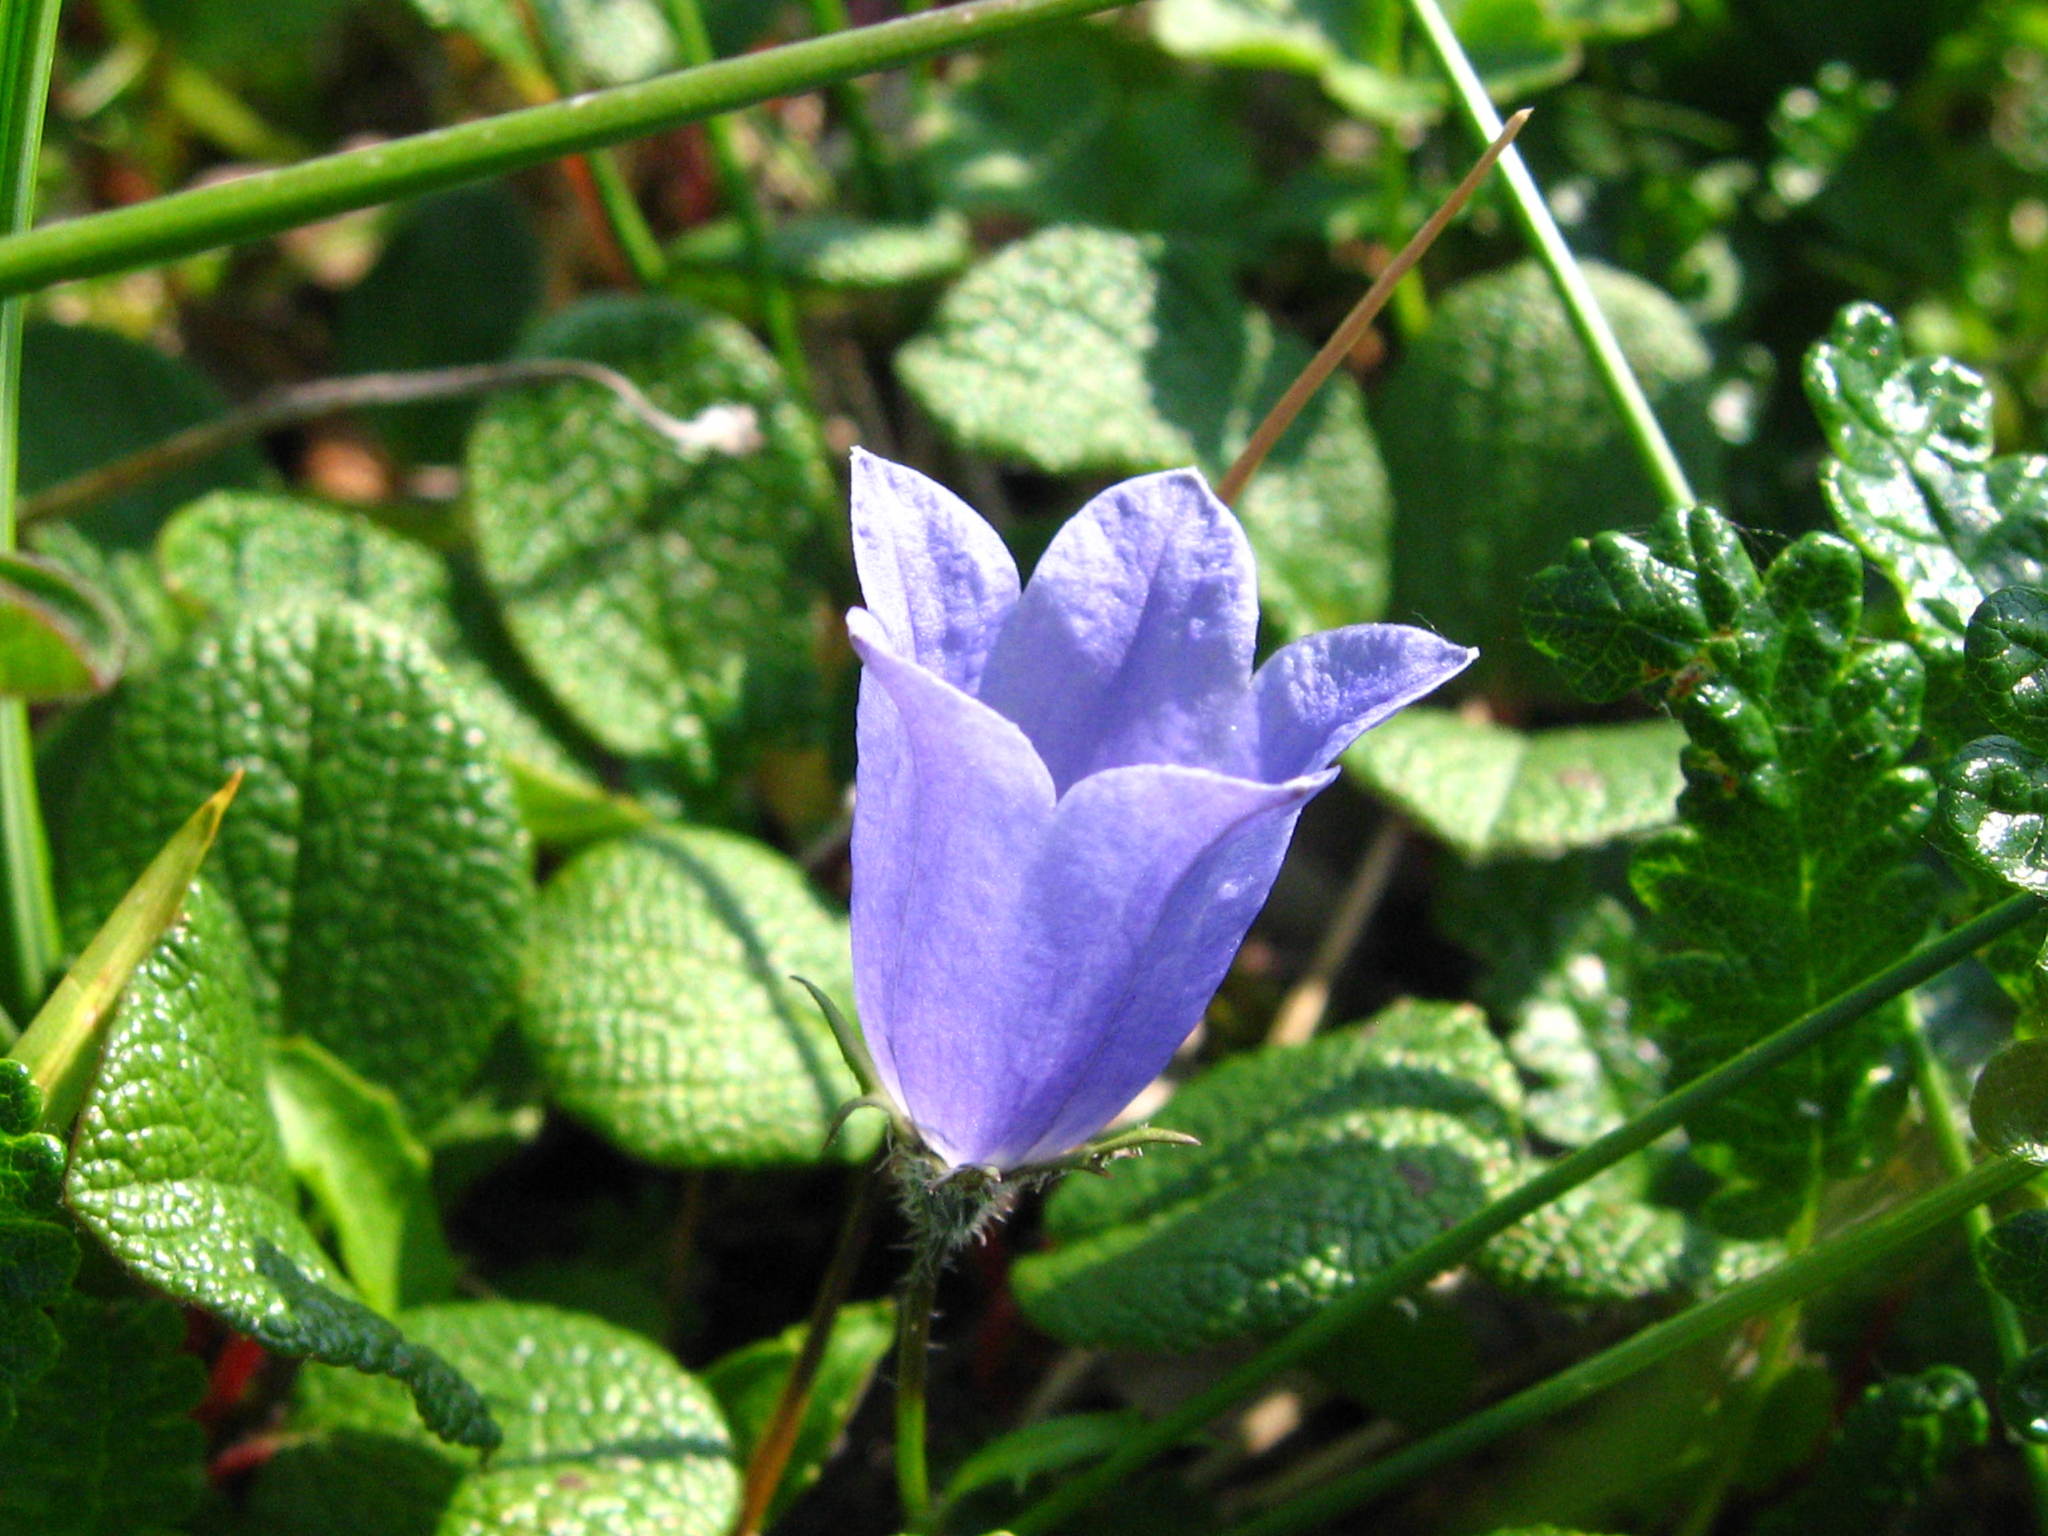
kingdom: Plantae
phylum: Tracheophyta
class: Magnoliopsida
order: Asterales
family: Campanulaceae
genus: Campanula
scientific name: Campanula lasiocarpa
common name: Mountain harebell
